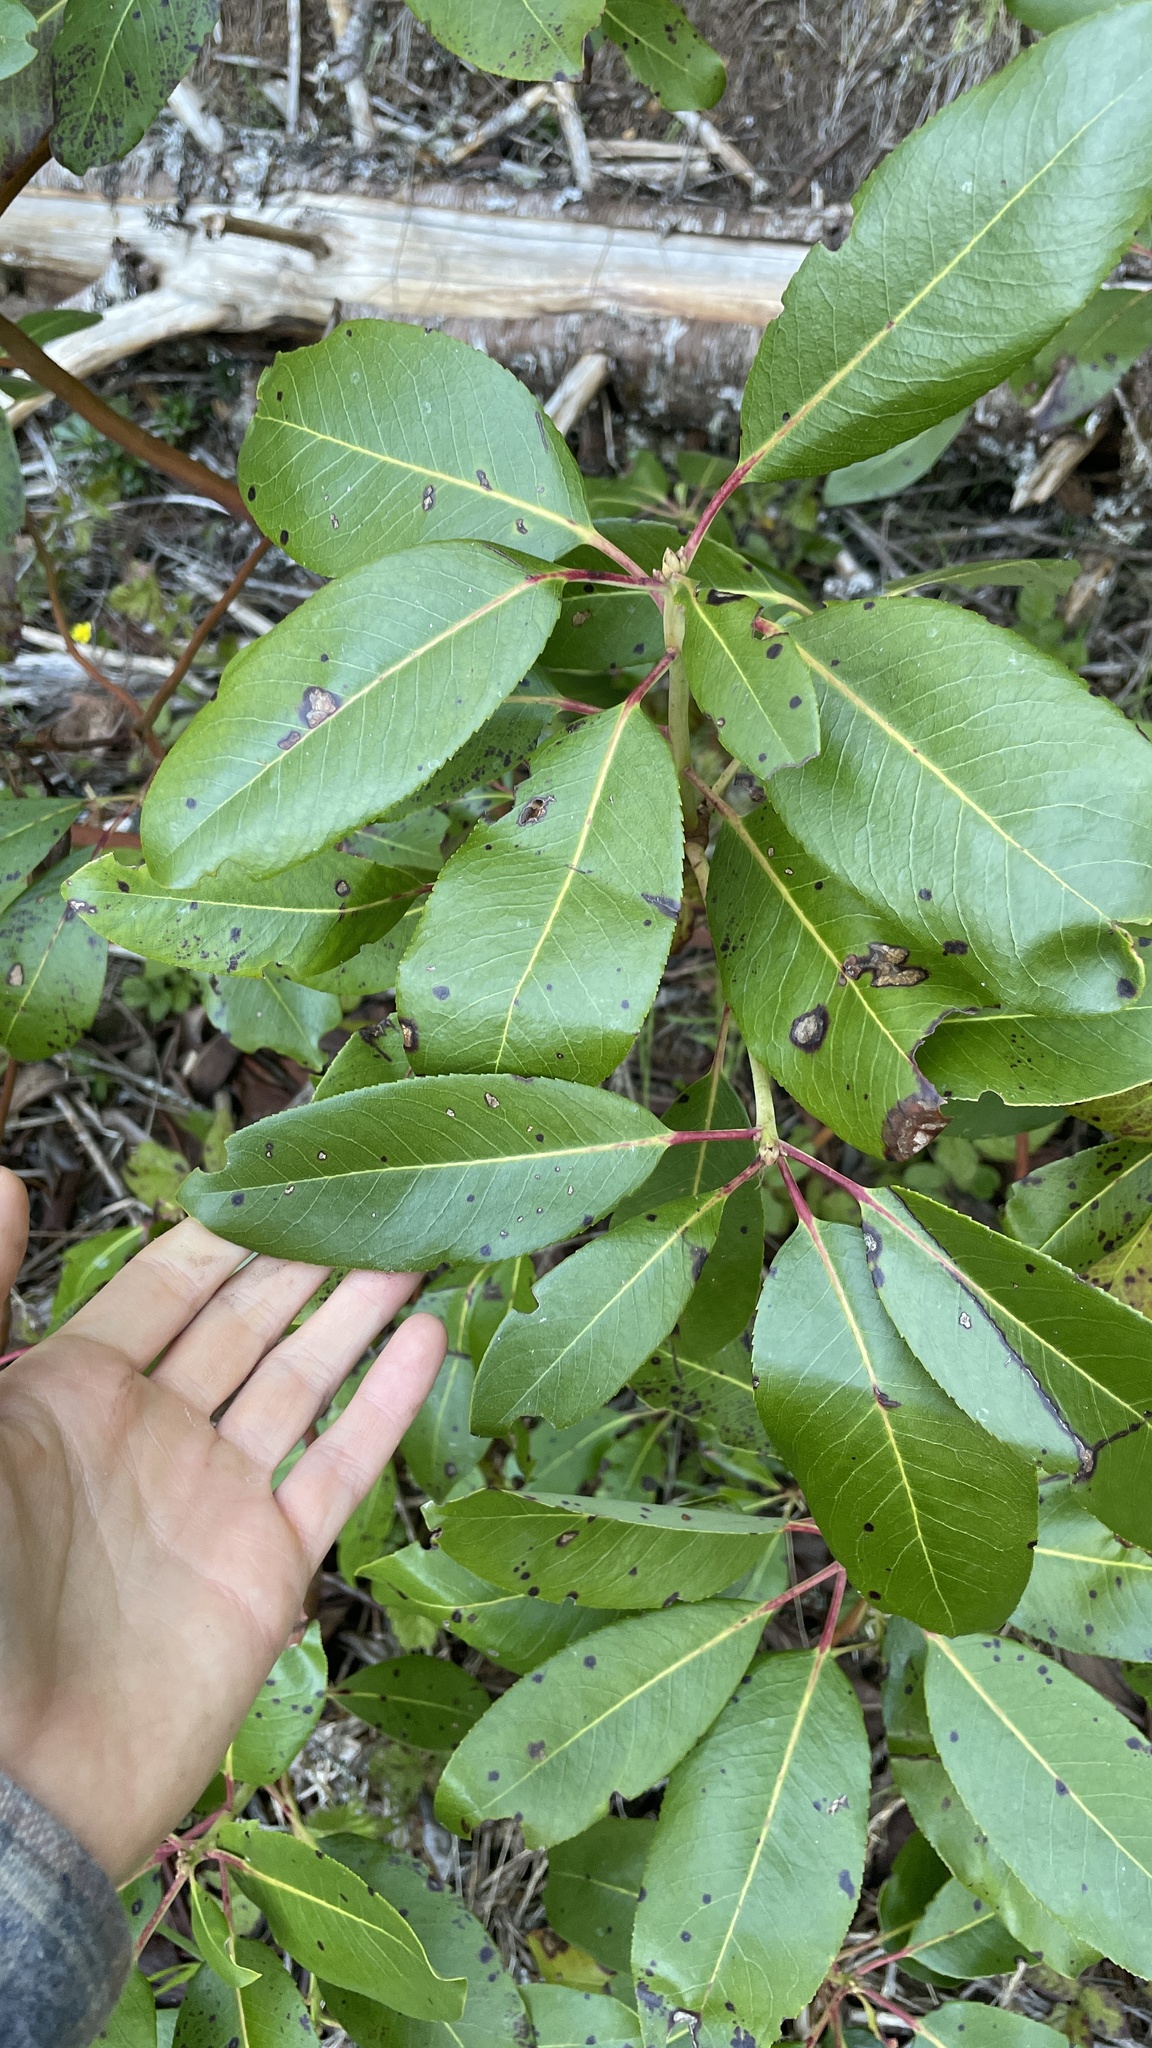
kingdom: Plantae
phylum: Tracheophyta
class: Magnoliopsida
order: Ericales
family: Ericaceae
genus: Arbutus
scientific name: Arbutus menziesii
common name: Pacific madrone
